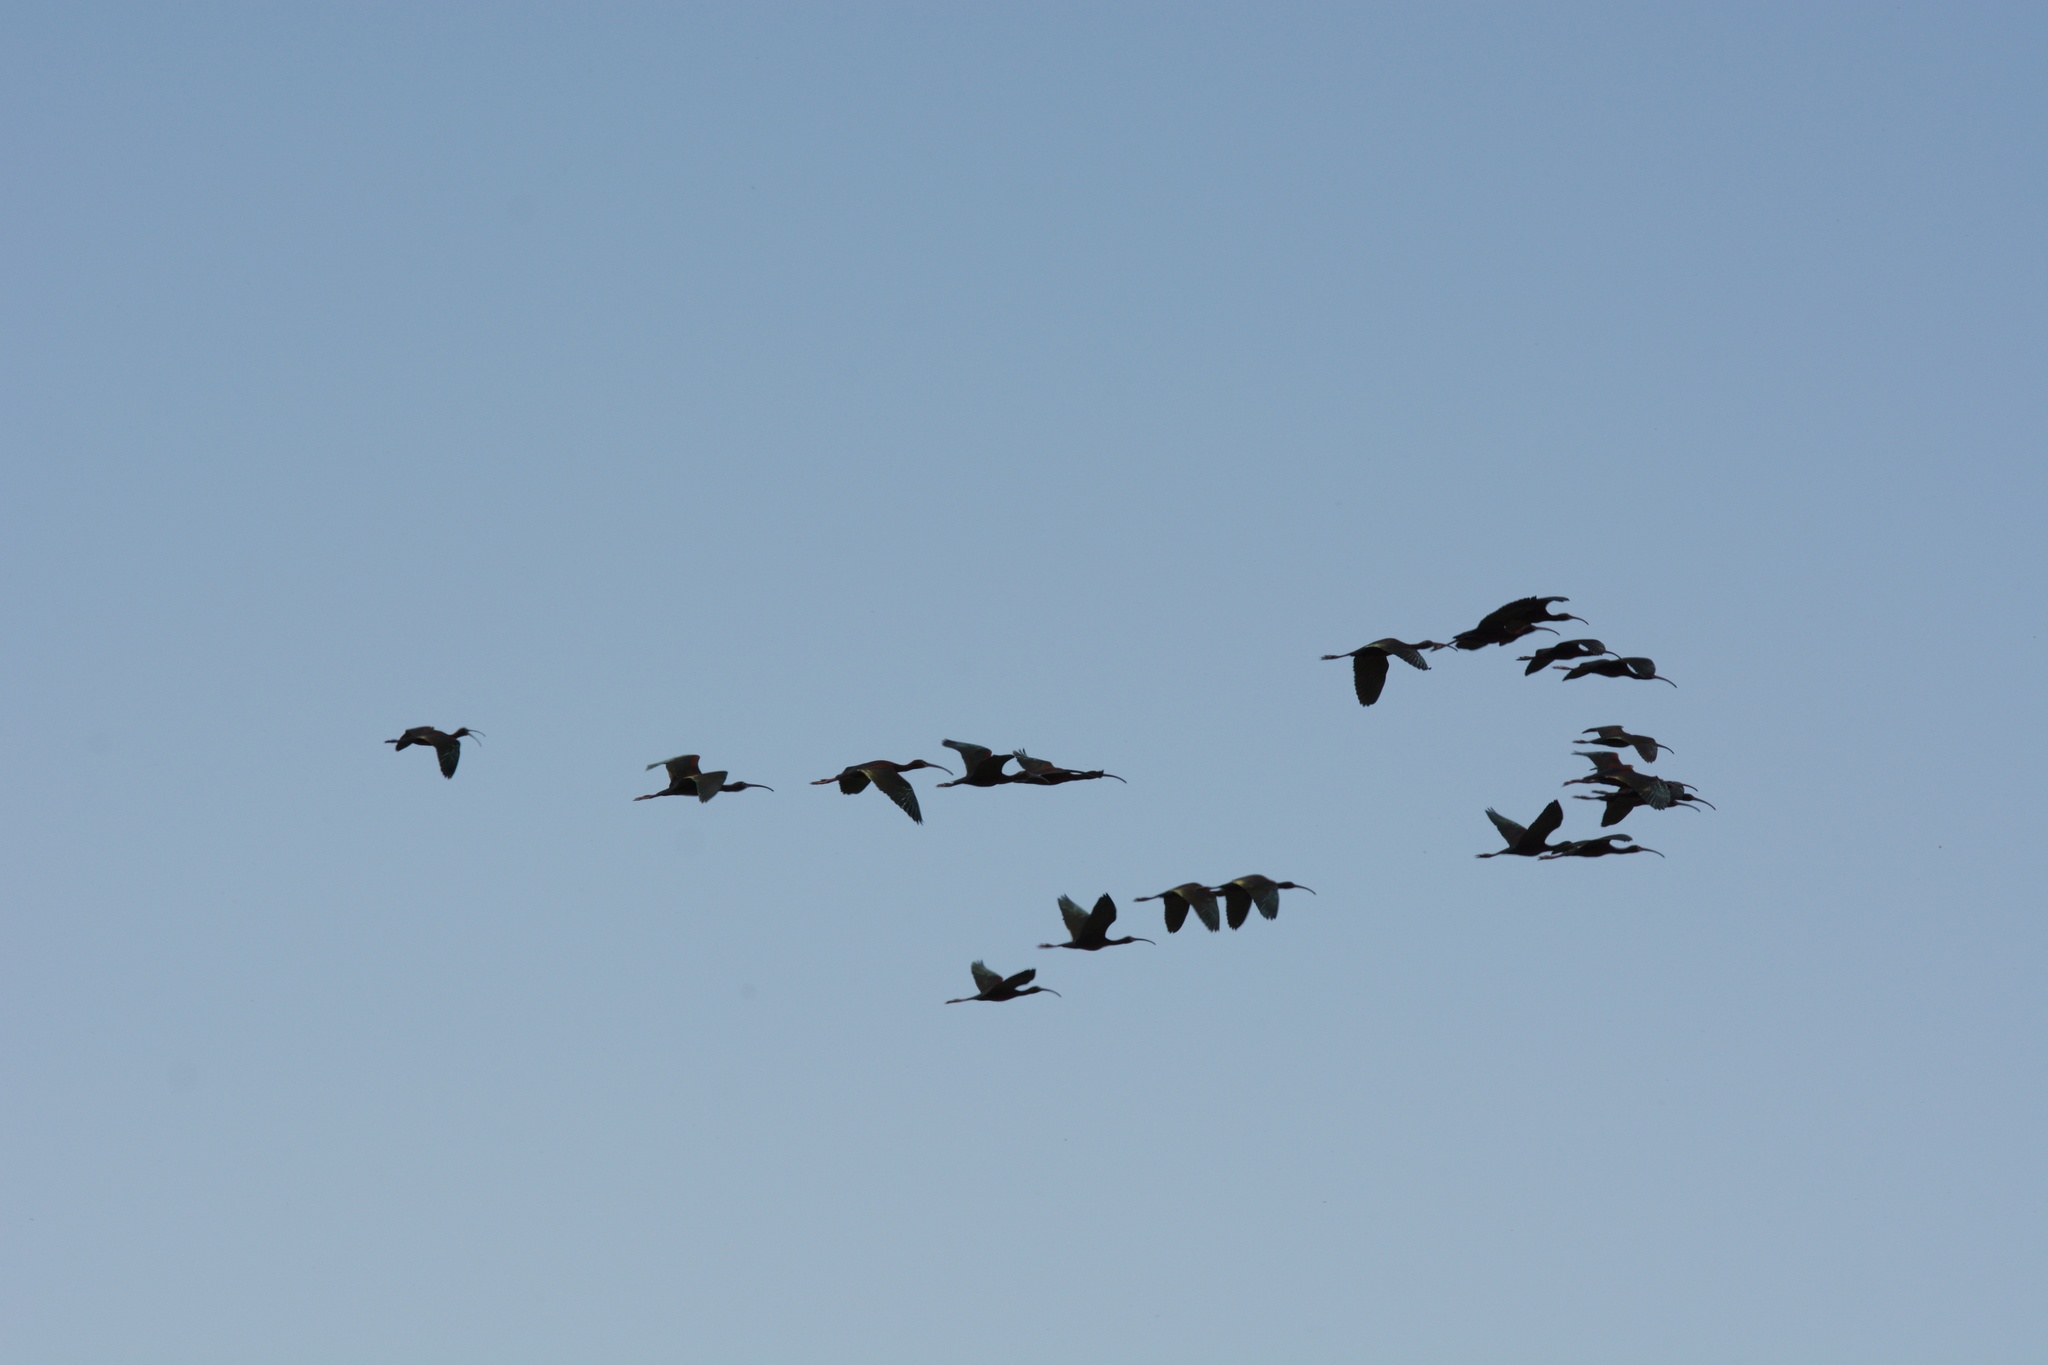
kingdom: Animalia
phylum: Chordata
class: Aves
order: Pelecaniformes
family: Threskiornithidae
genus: Plegadis
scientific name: Plegadis chihi
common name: White-faced ibis
